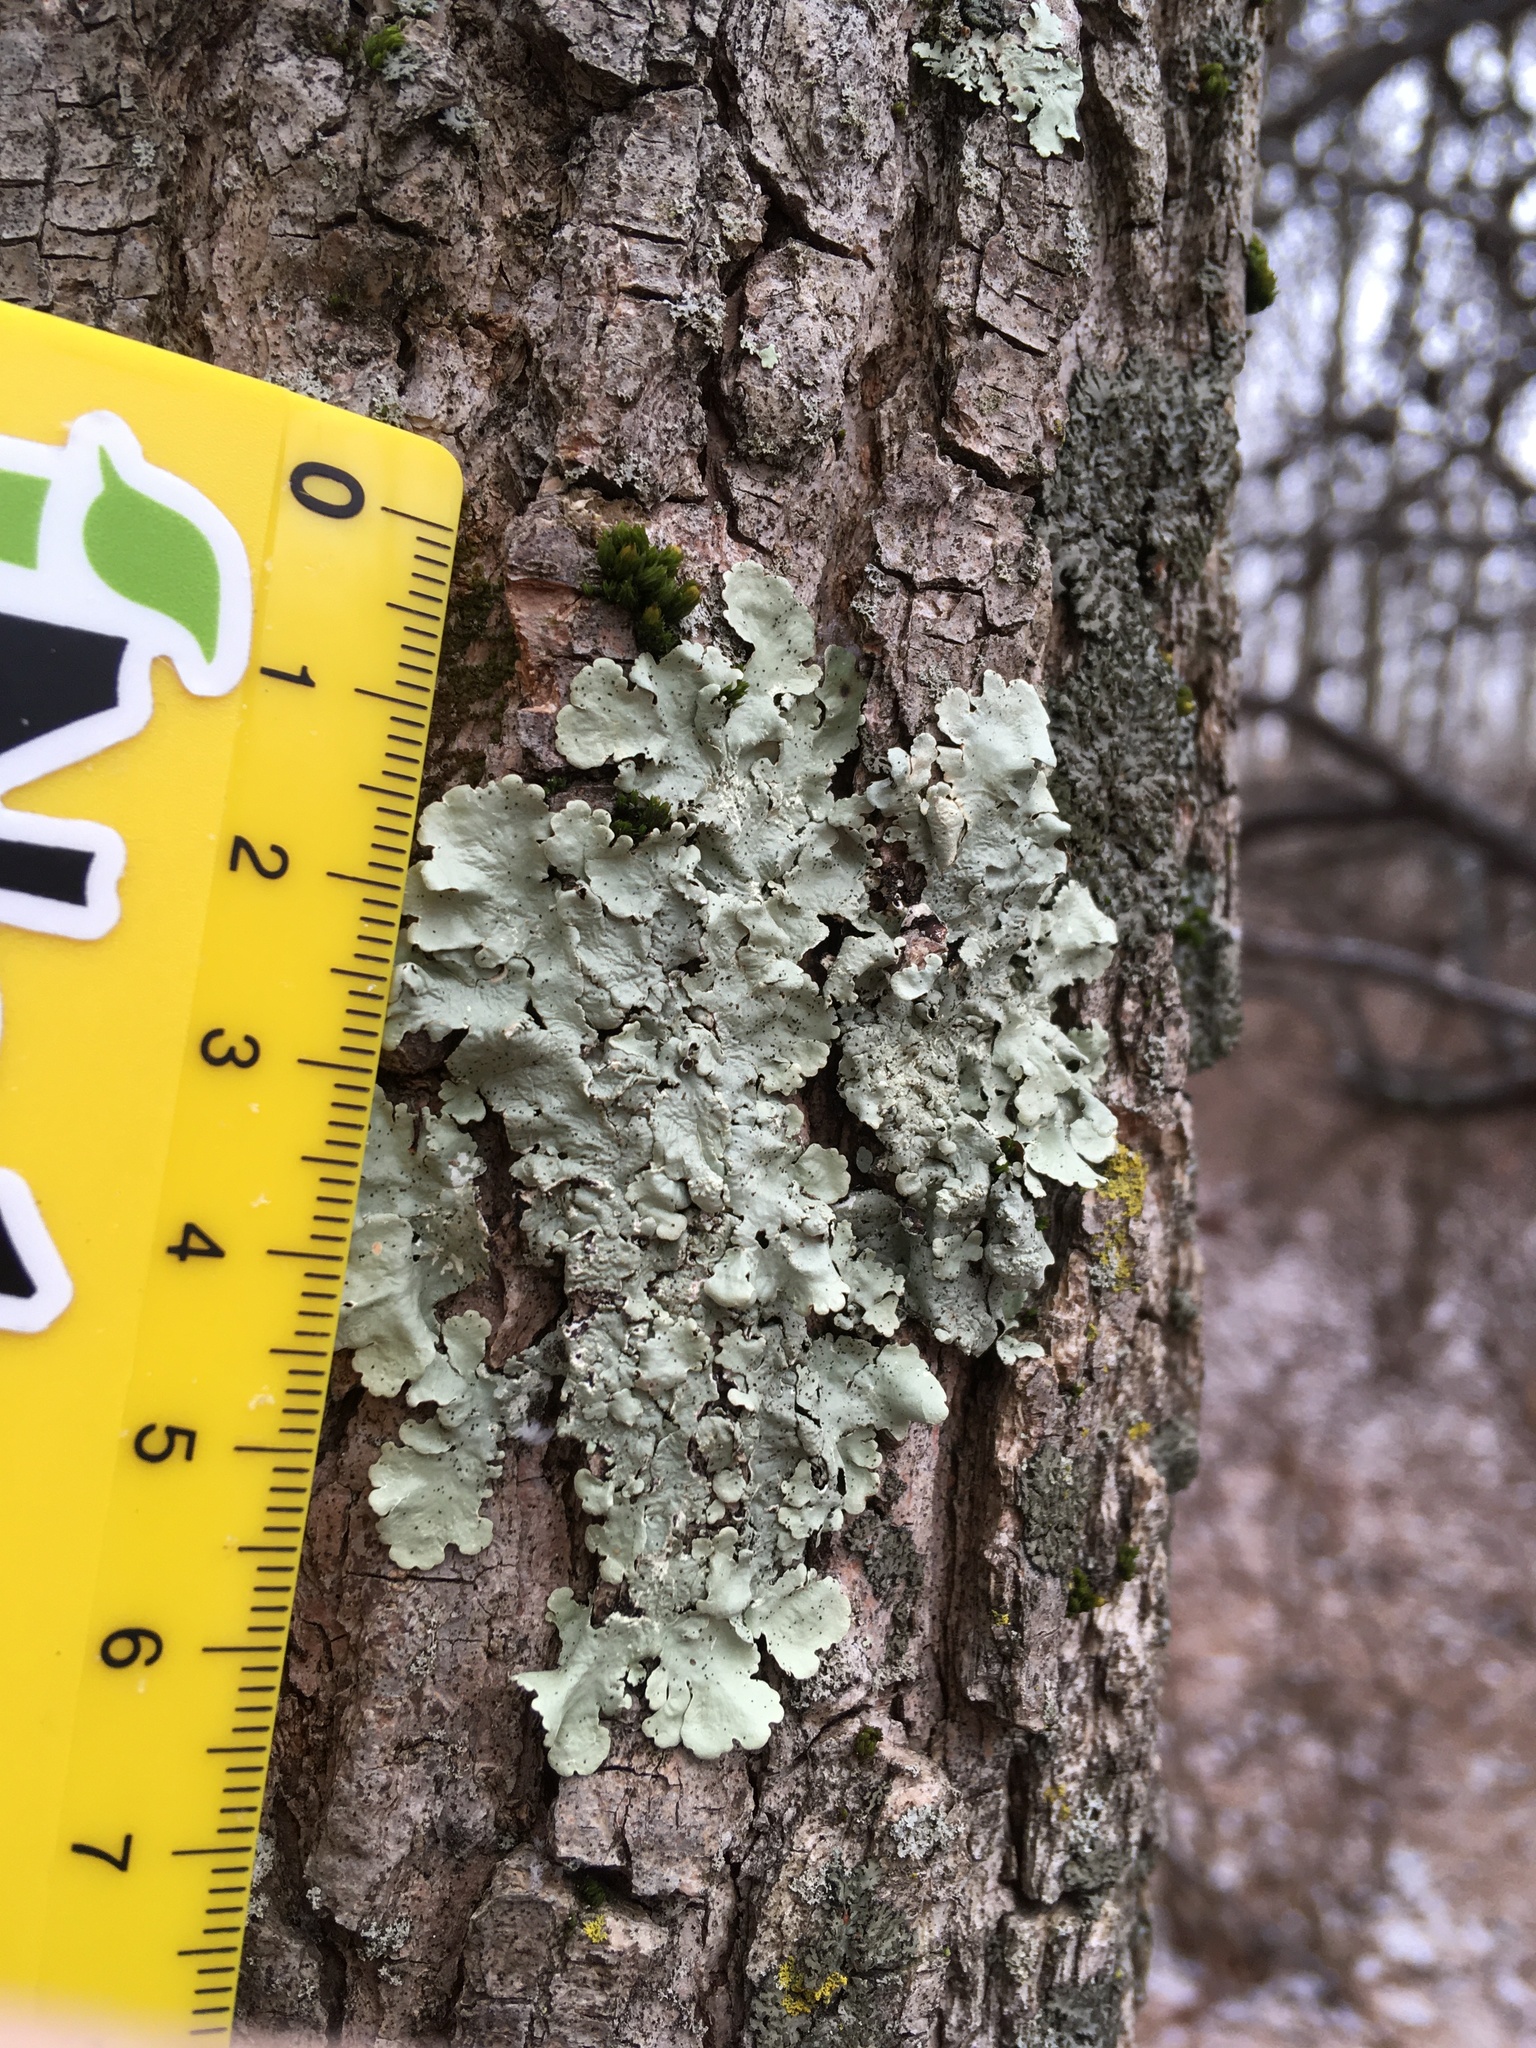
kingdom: Fungi
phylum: Ascomycota
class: Lecanoromycetes
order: Lecanorales
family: Parmeliaceae
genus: Flavoparmelia
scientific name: Flavoparmelia caperata
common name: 40-mile per hour lichen
